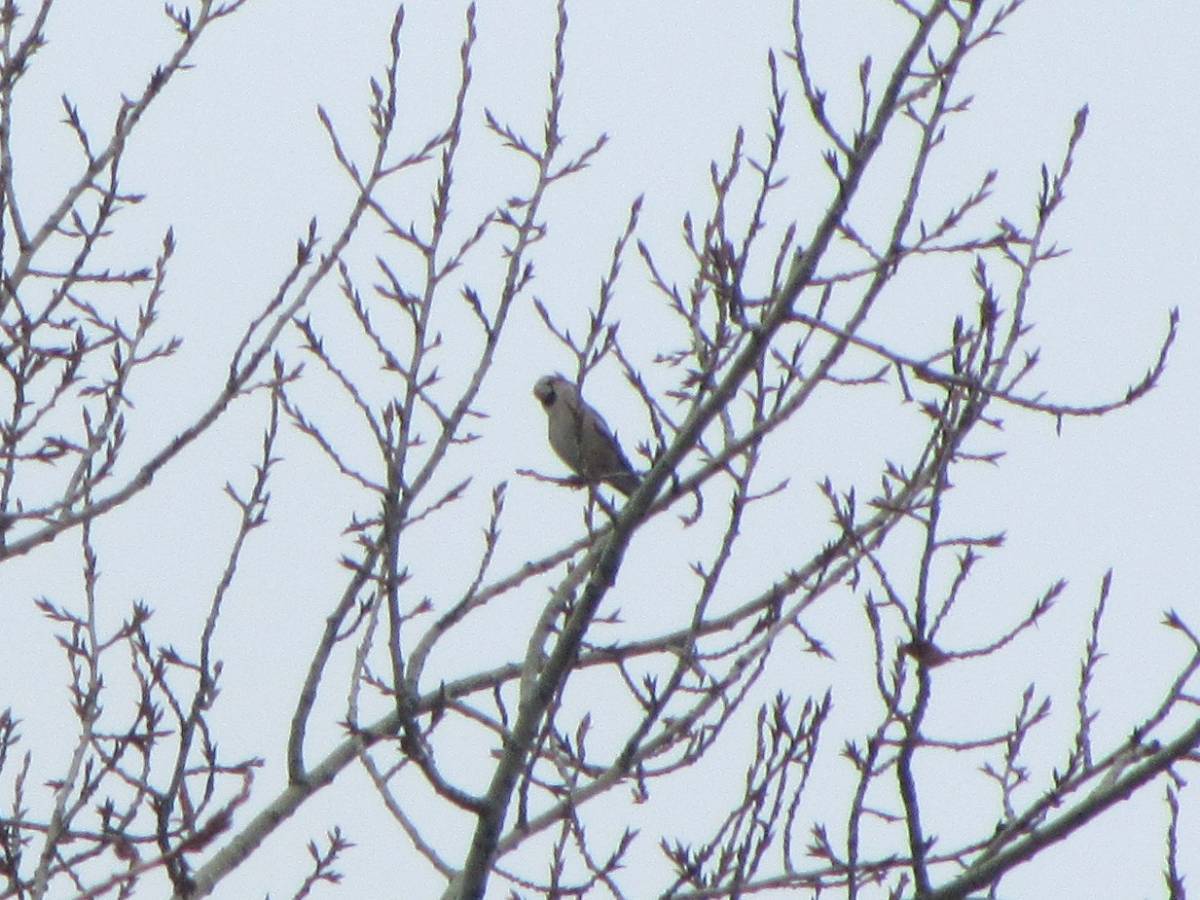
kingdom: Animalia
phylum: Chordata
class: Aves
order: Passeriformes
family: Fringillidae
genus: Coccothraustes
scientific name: Coccothraustes coccothraustes
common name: Hawfinch
